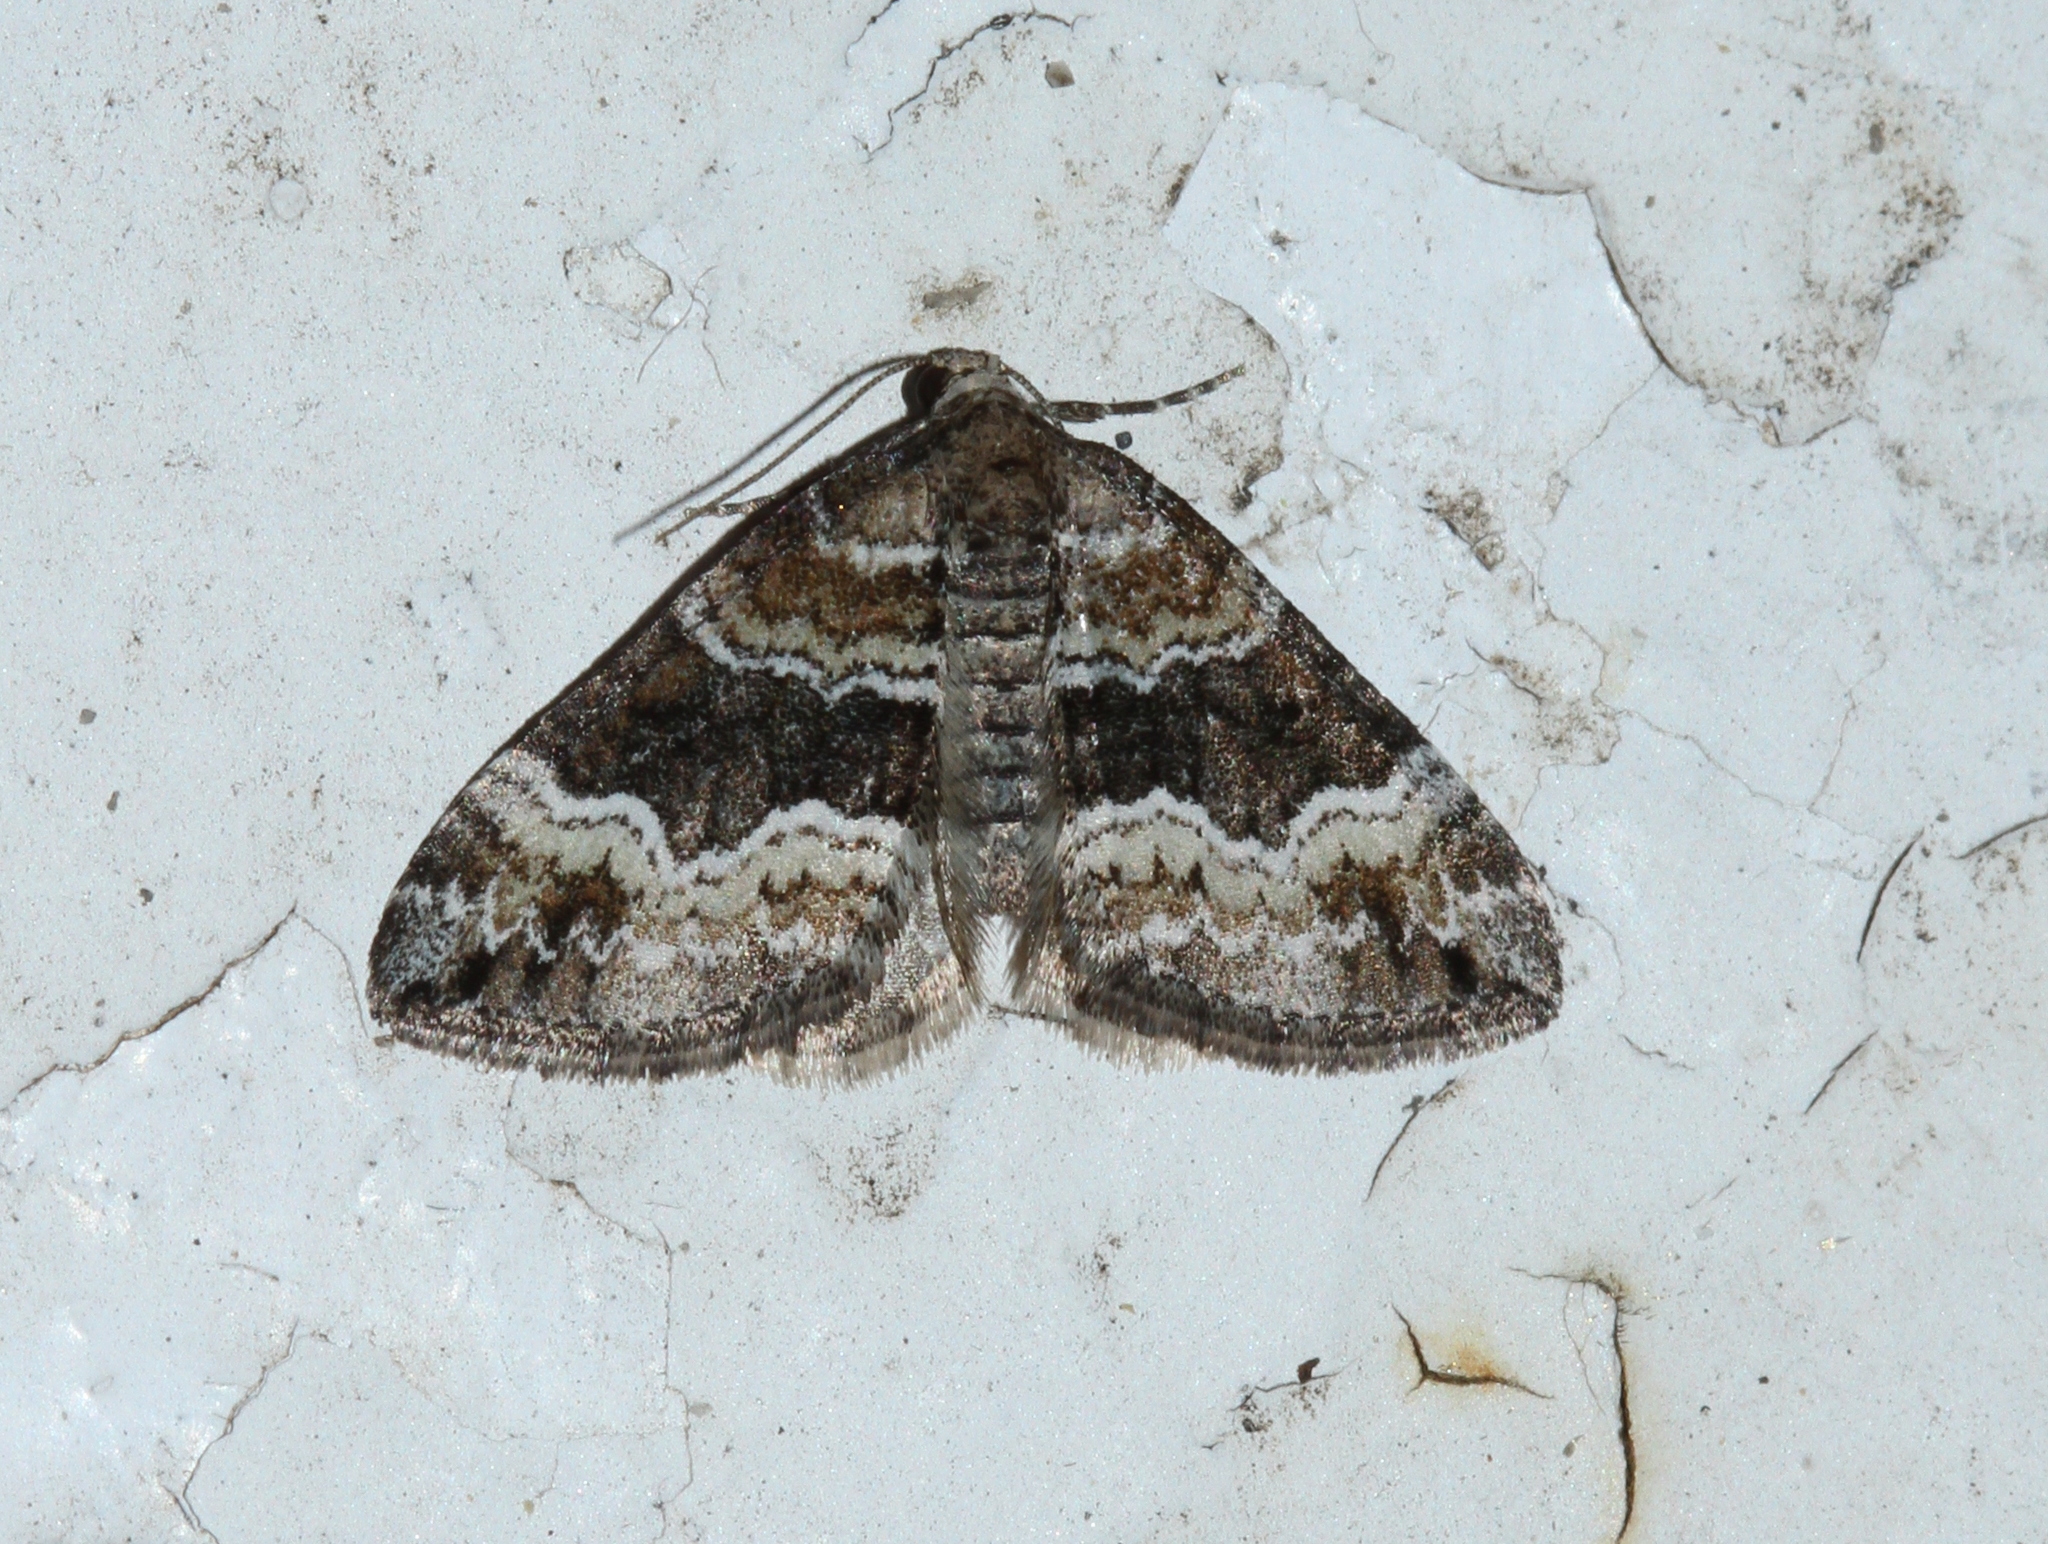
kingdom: Animalia
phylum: Arthropoda
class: Insecta
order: Lepidoptera
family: Geometridae
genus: Perizoma
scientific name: Perizoma bifaciata
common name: Barred rivulet
